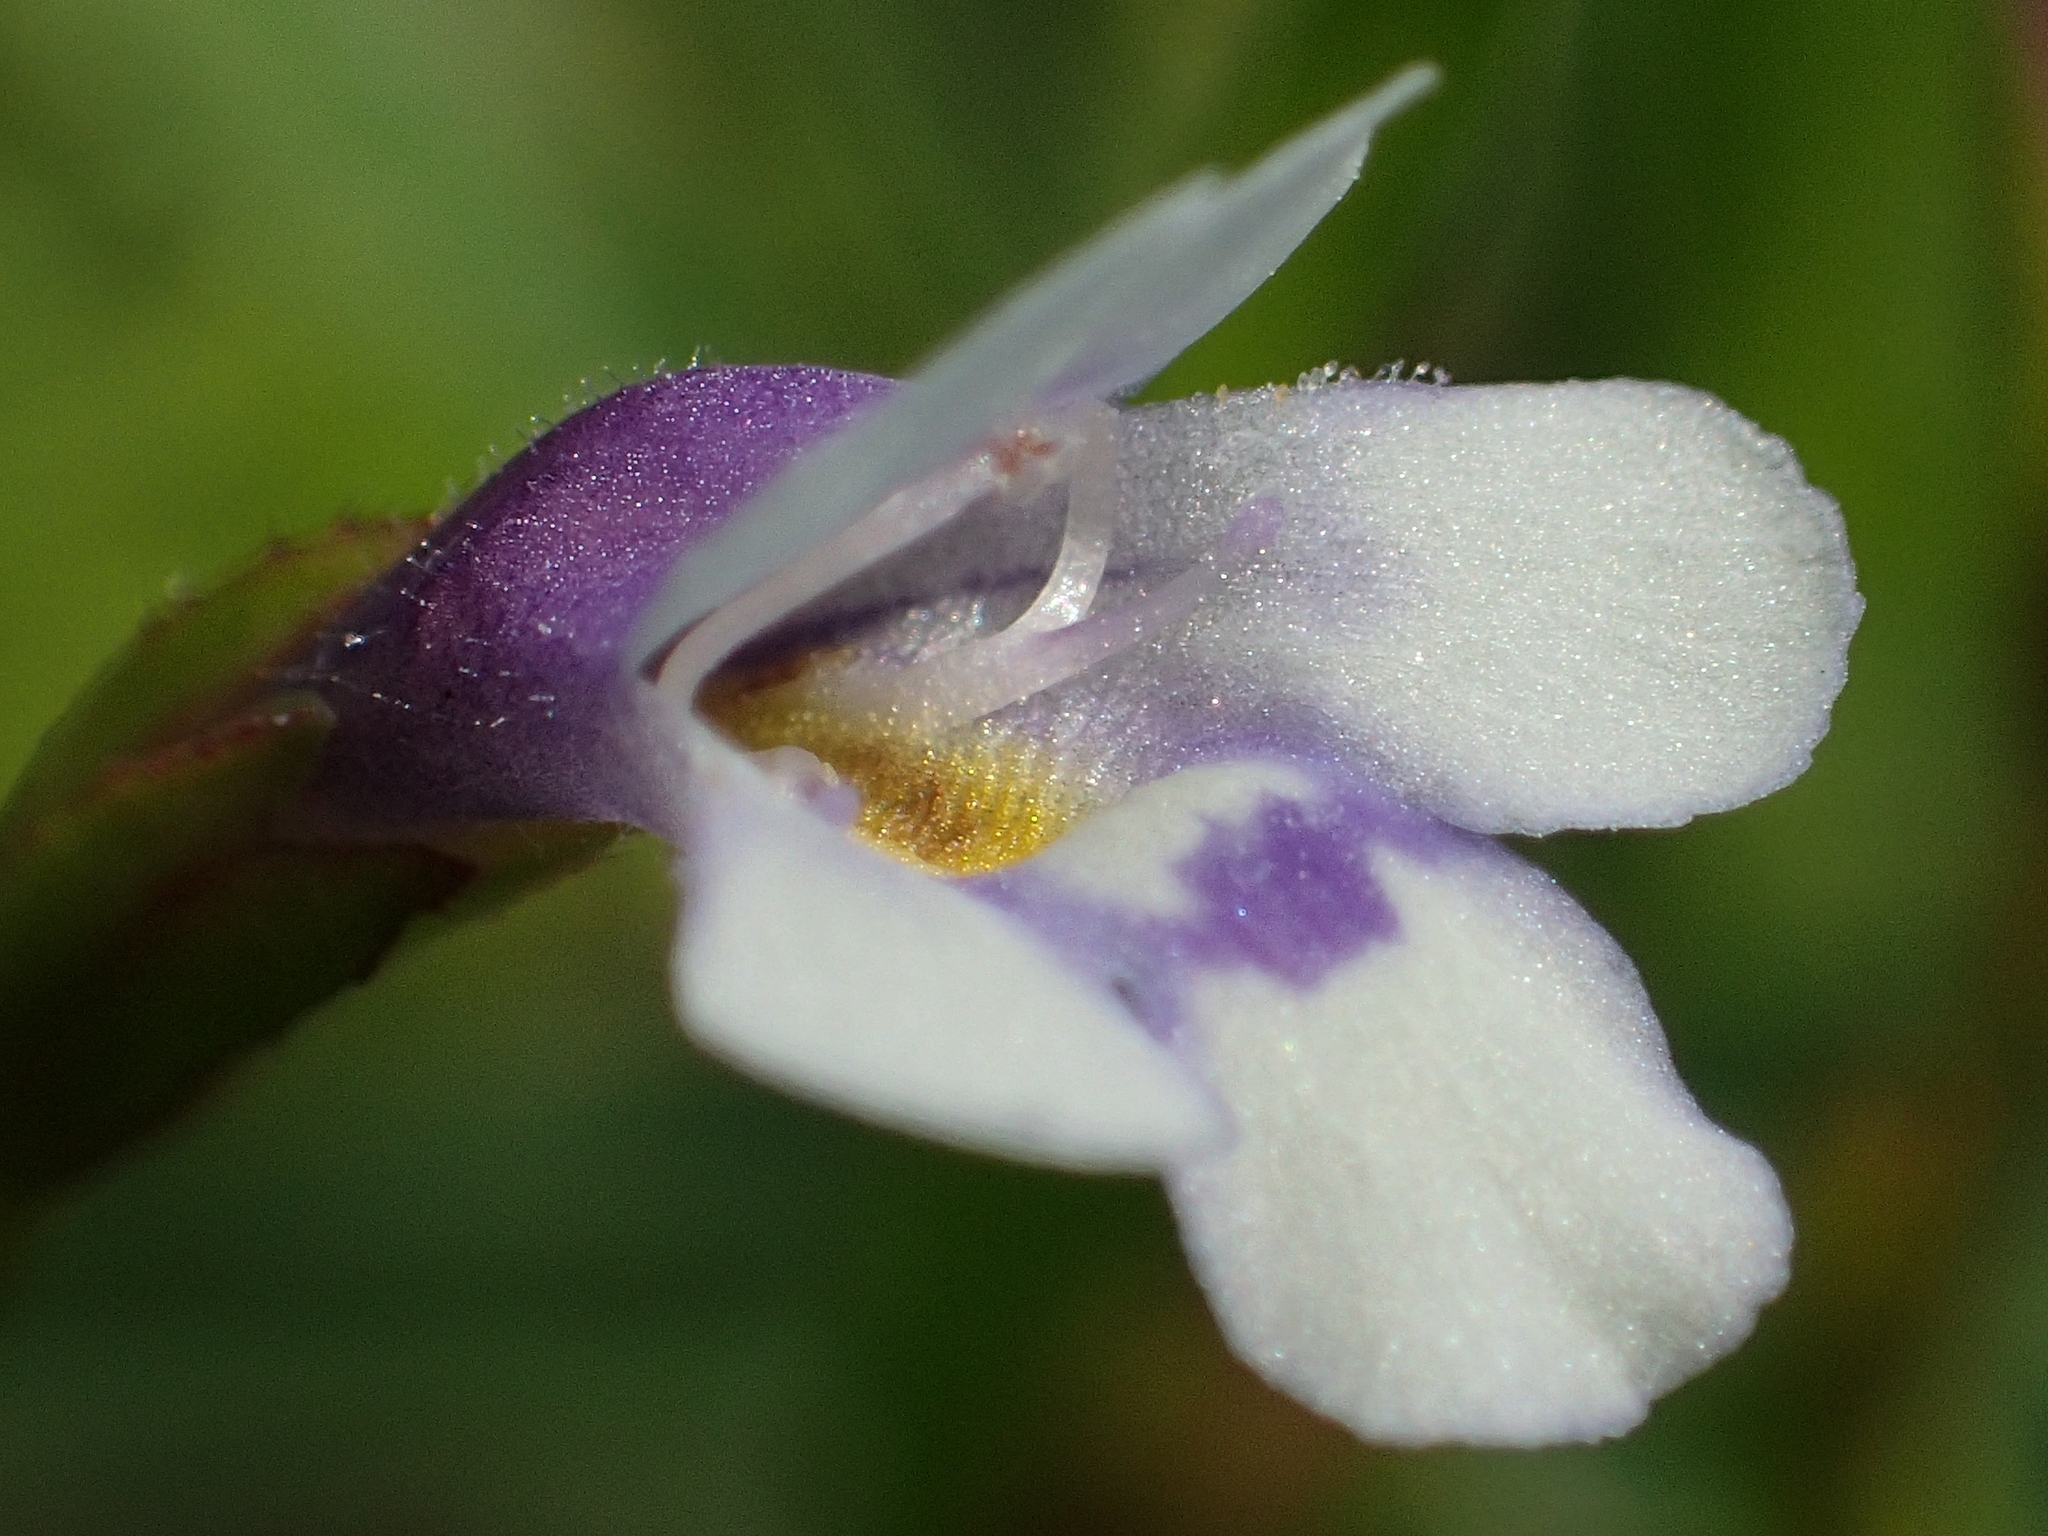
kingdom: Plantae
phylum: Tracheophyta
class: Magnoliopsida
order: Lamiales
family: Linderniaceae
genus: Torenia
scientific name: Torenia crustacea
